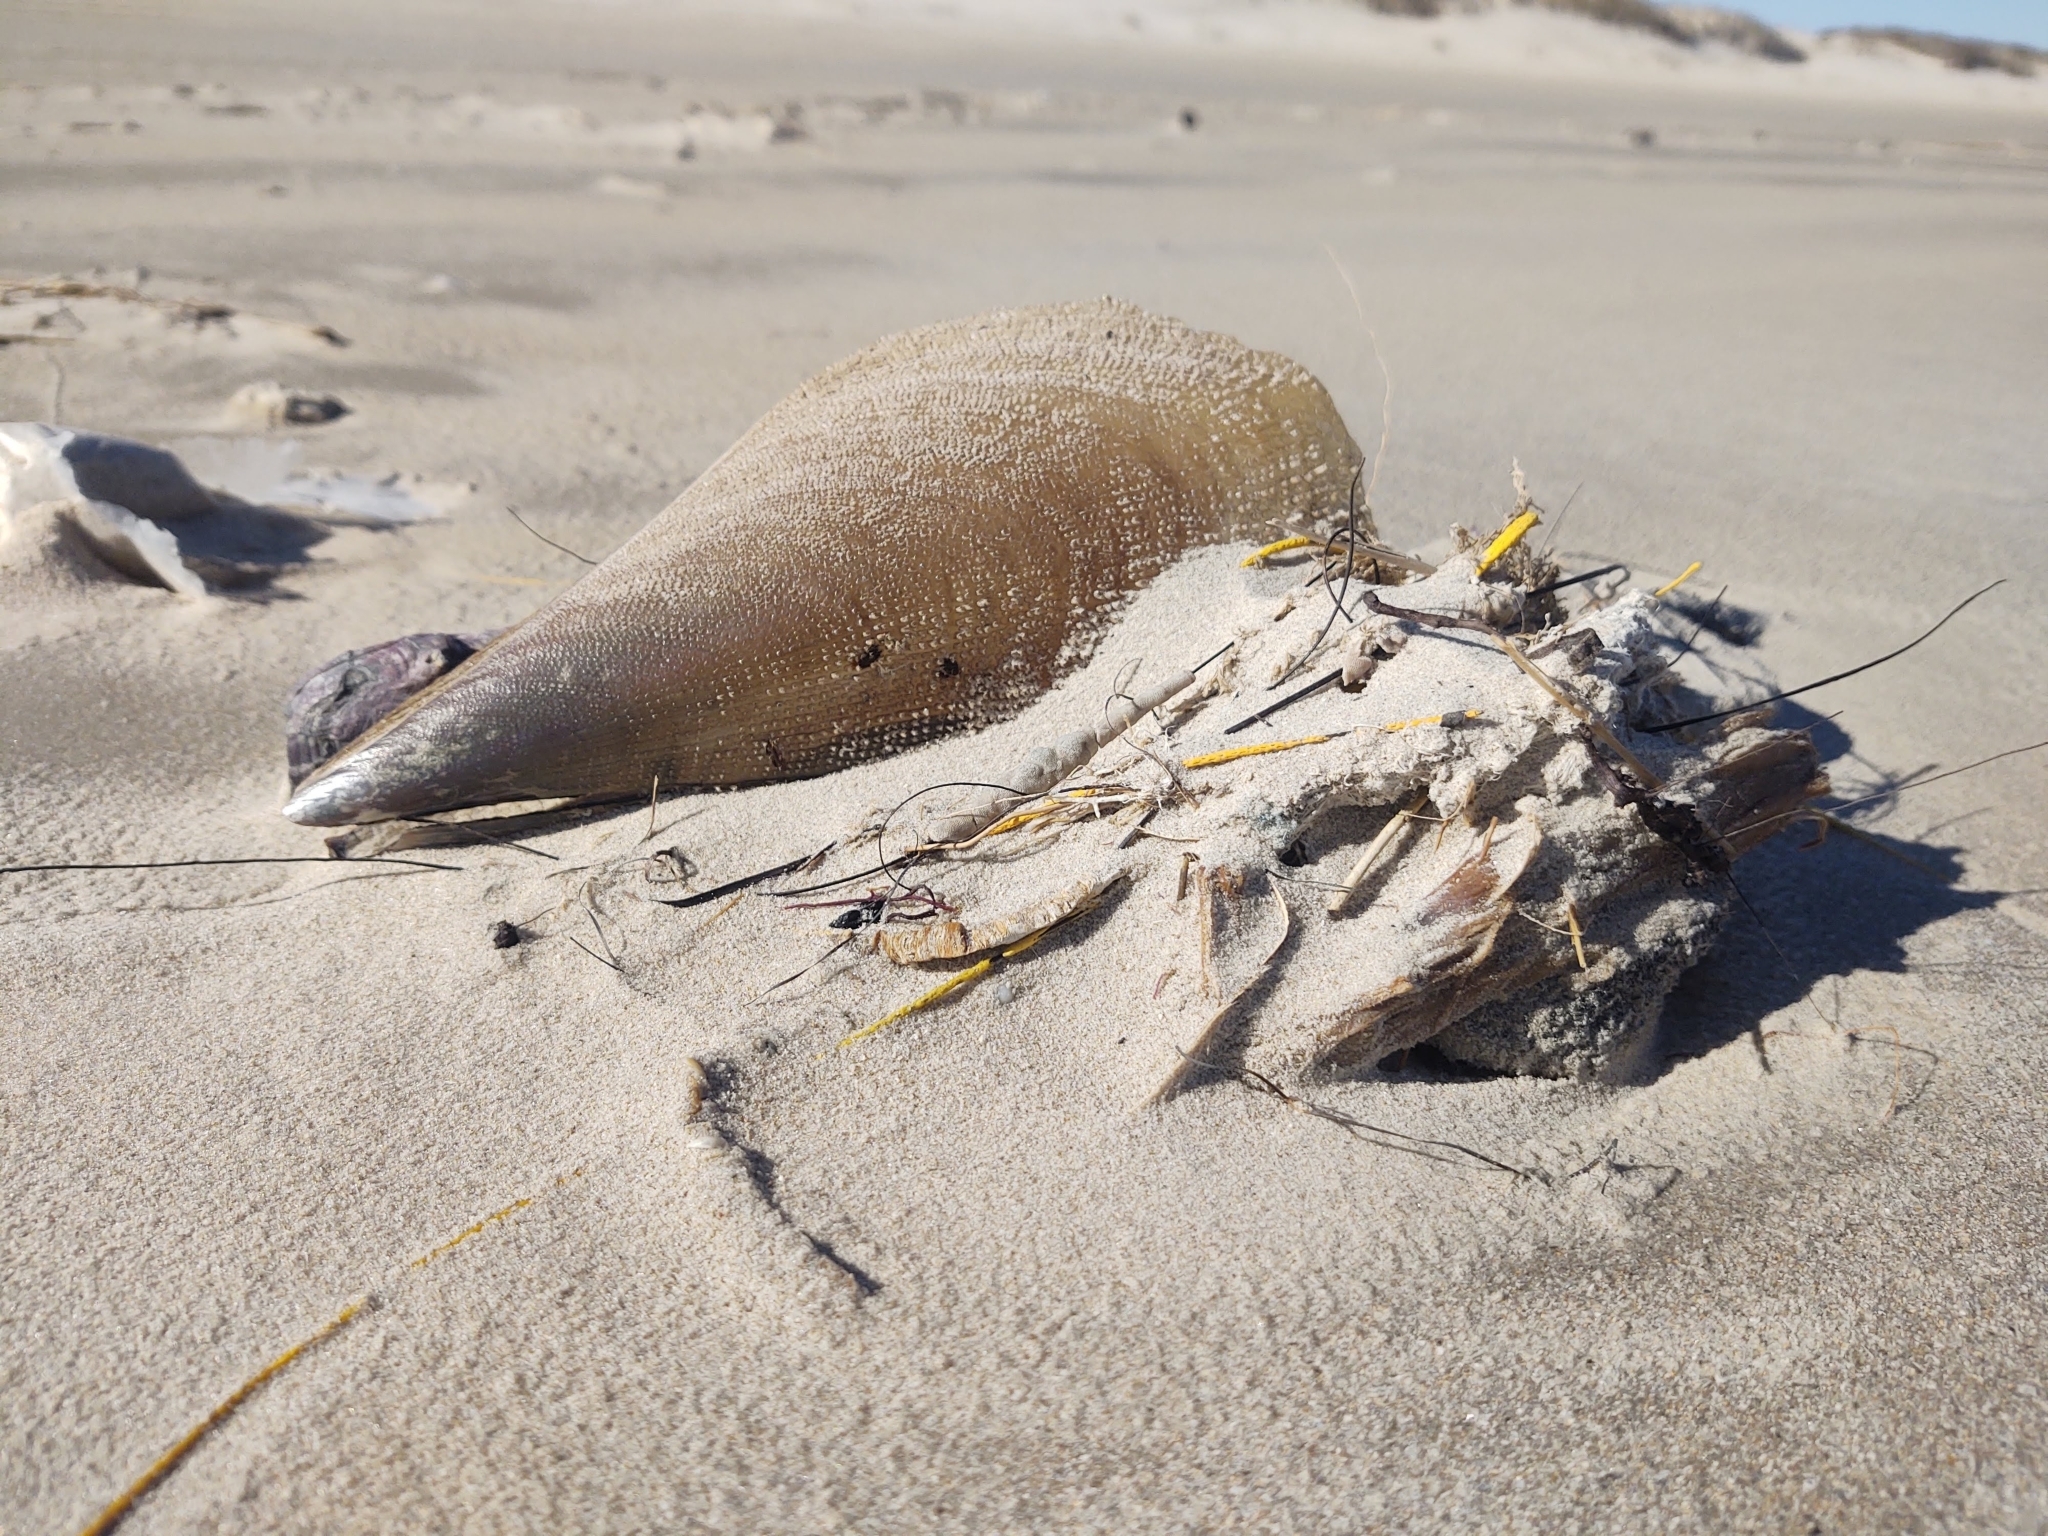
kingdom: Animalia
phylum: Mollusca
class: Bivalvia
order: Ostreida
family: Pinnidae
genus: Atrina
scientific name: Atrina serrata
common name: Saw-toothed penshell
